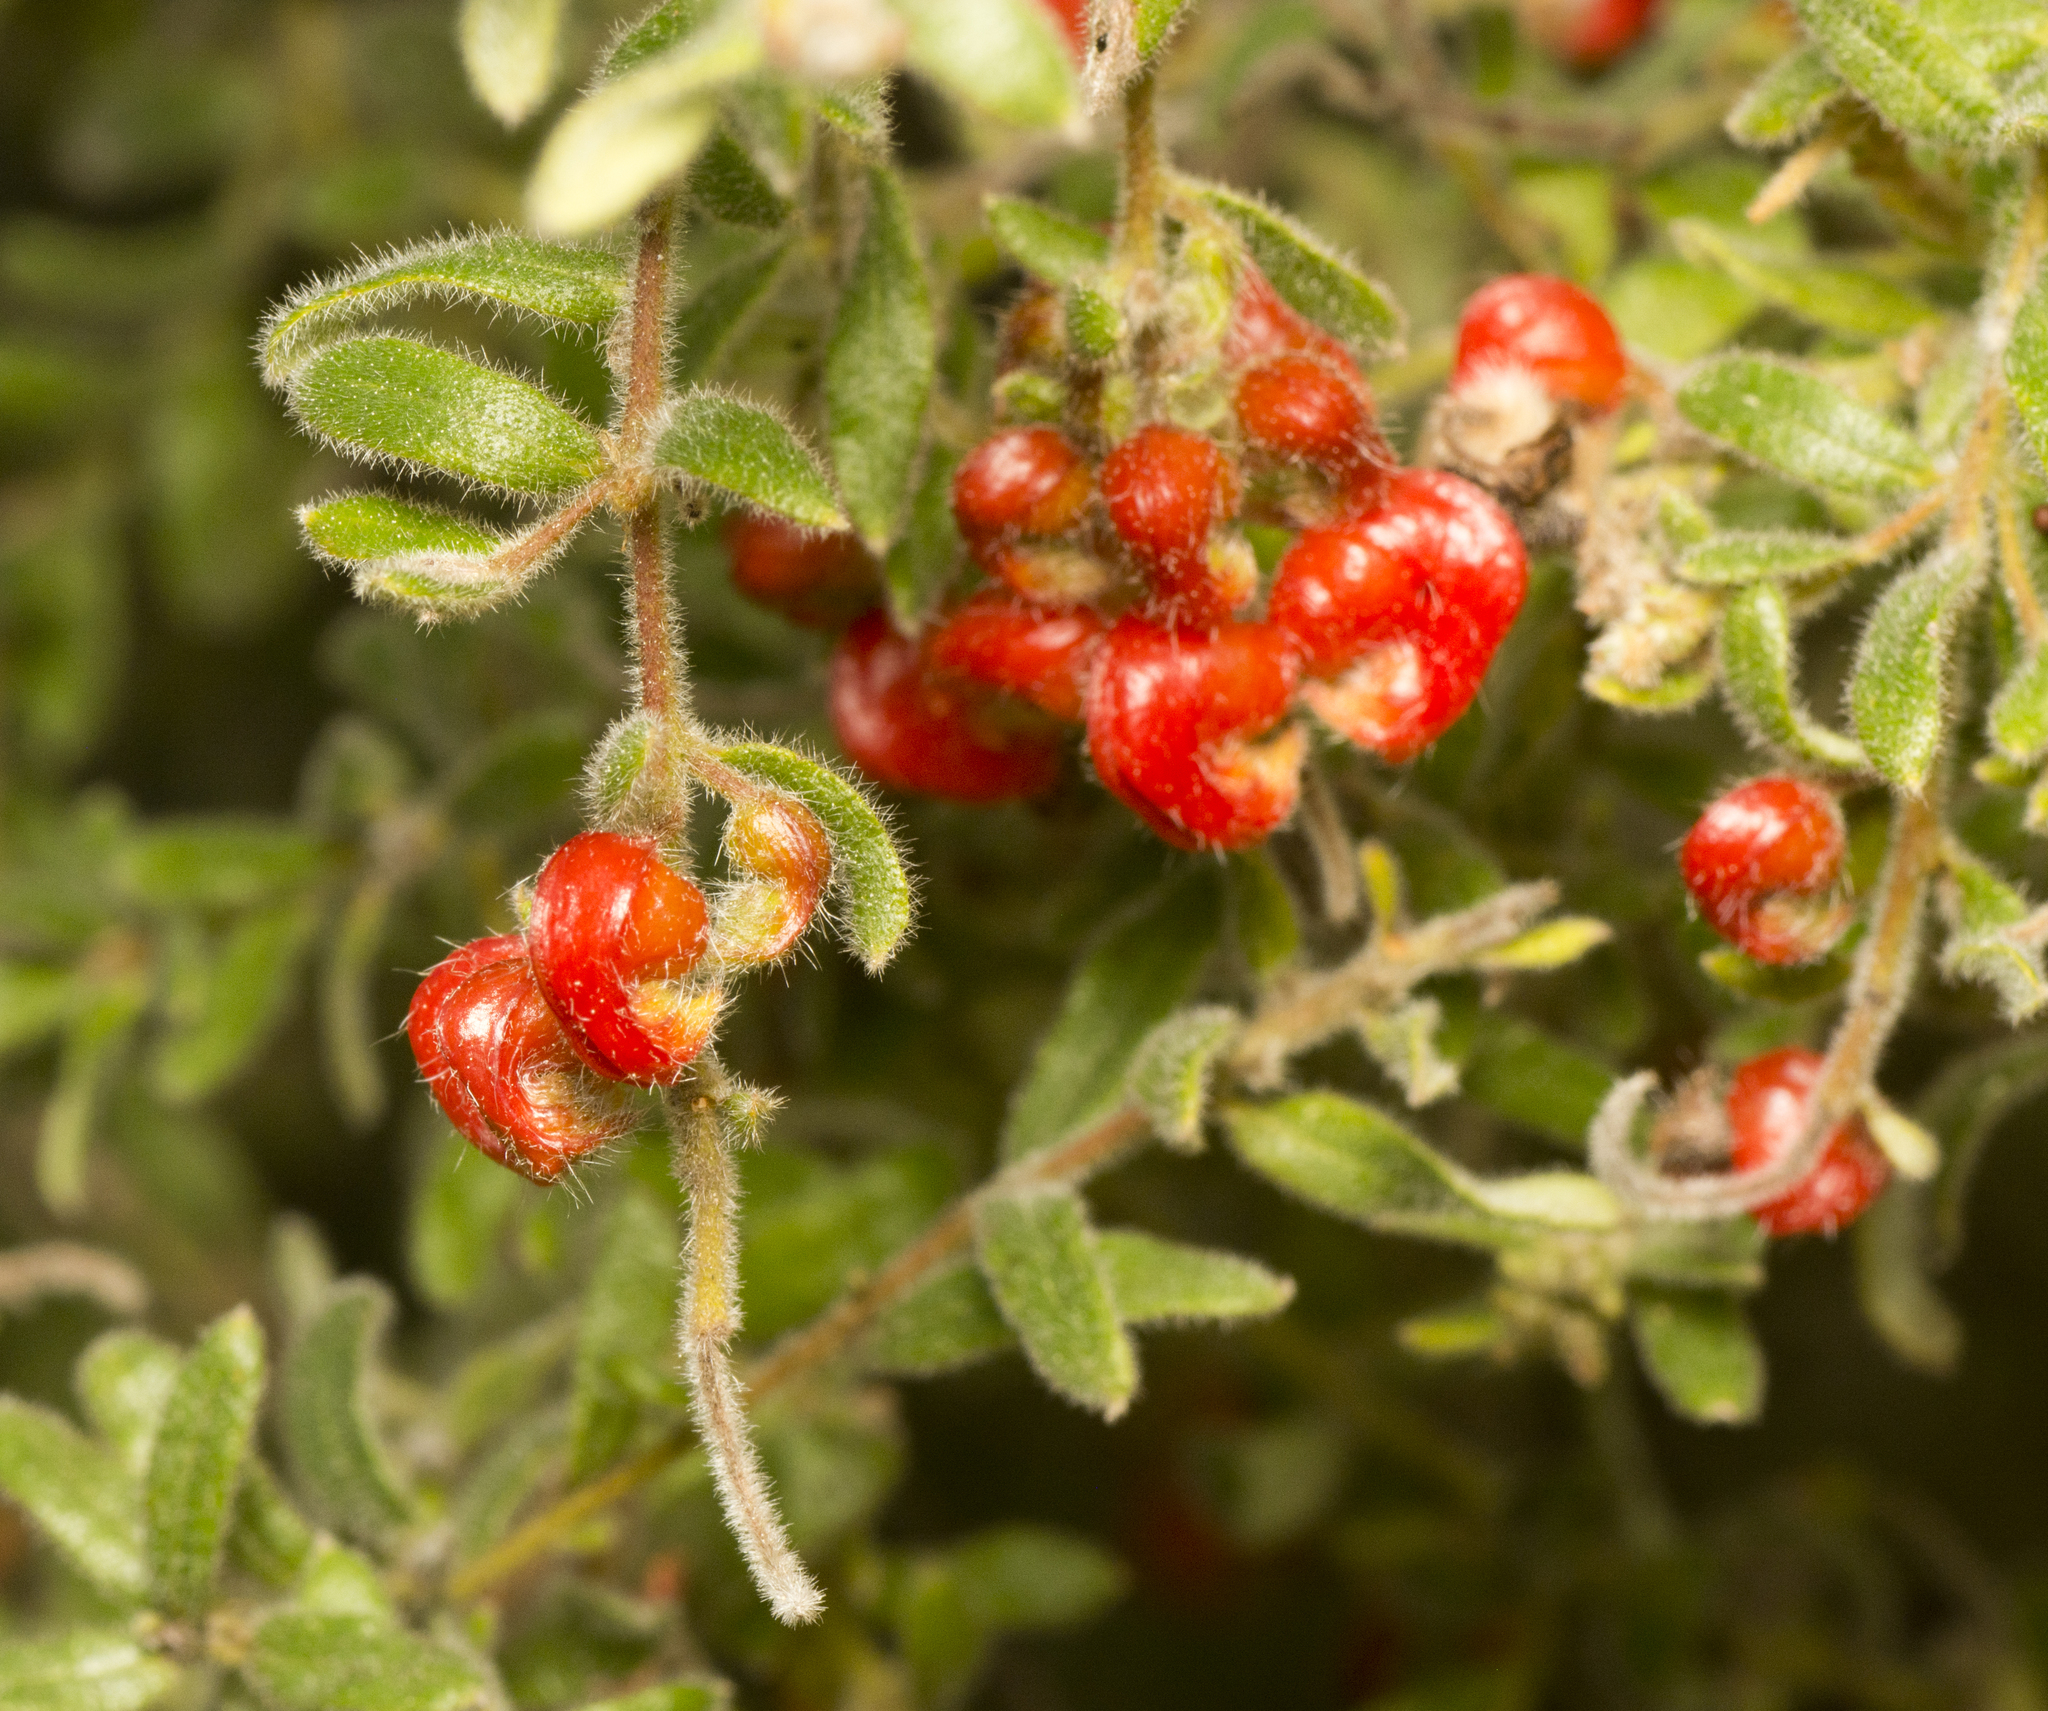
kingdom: Plantae
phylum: Tracheophyta
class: Magnoliopsida
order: Proteales
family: Proteaceae
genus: Grevillea
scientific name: Grevillea alpina
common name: Catclaws grevillea
